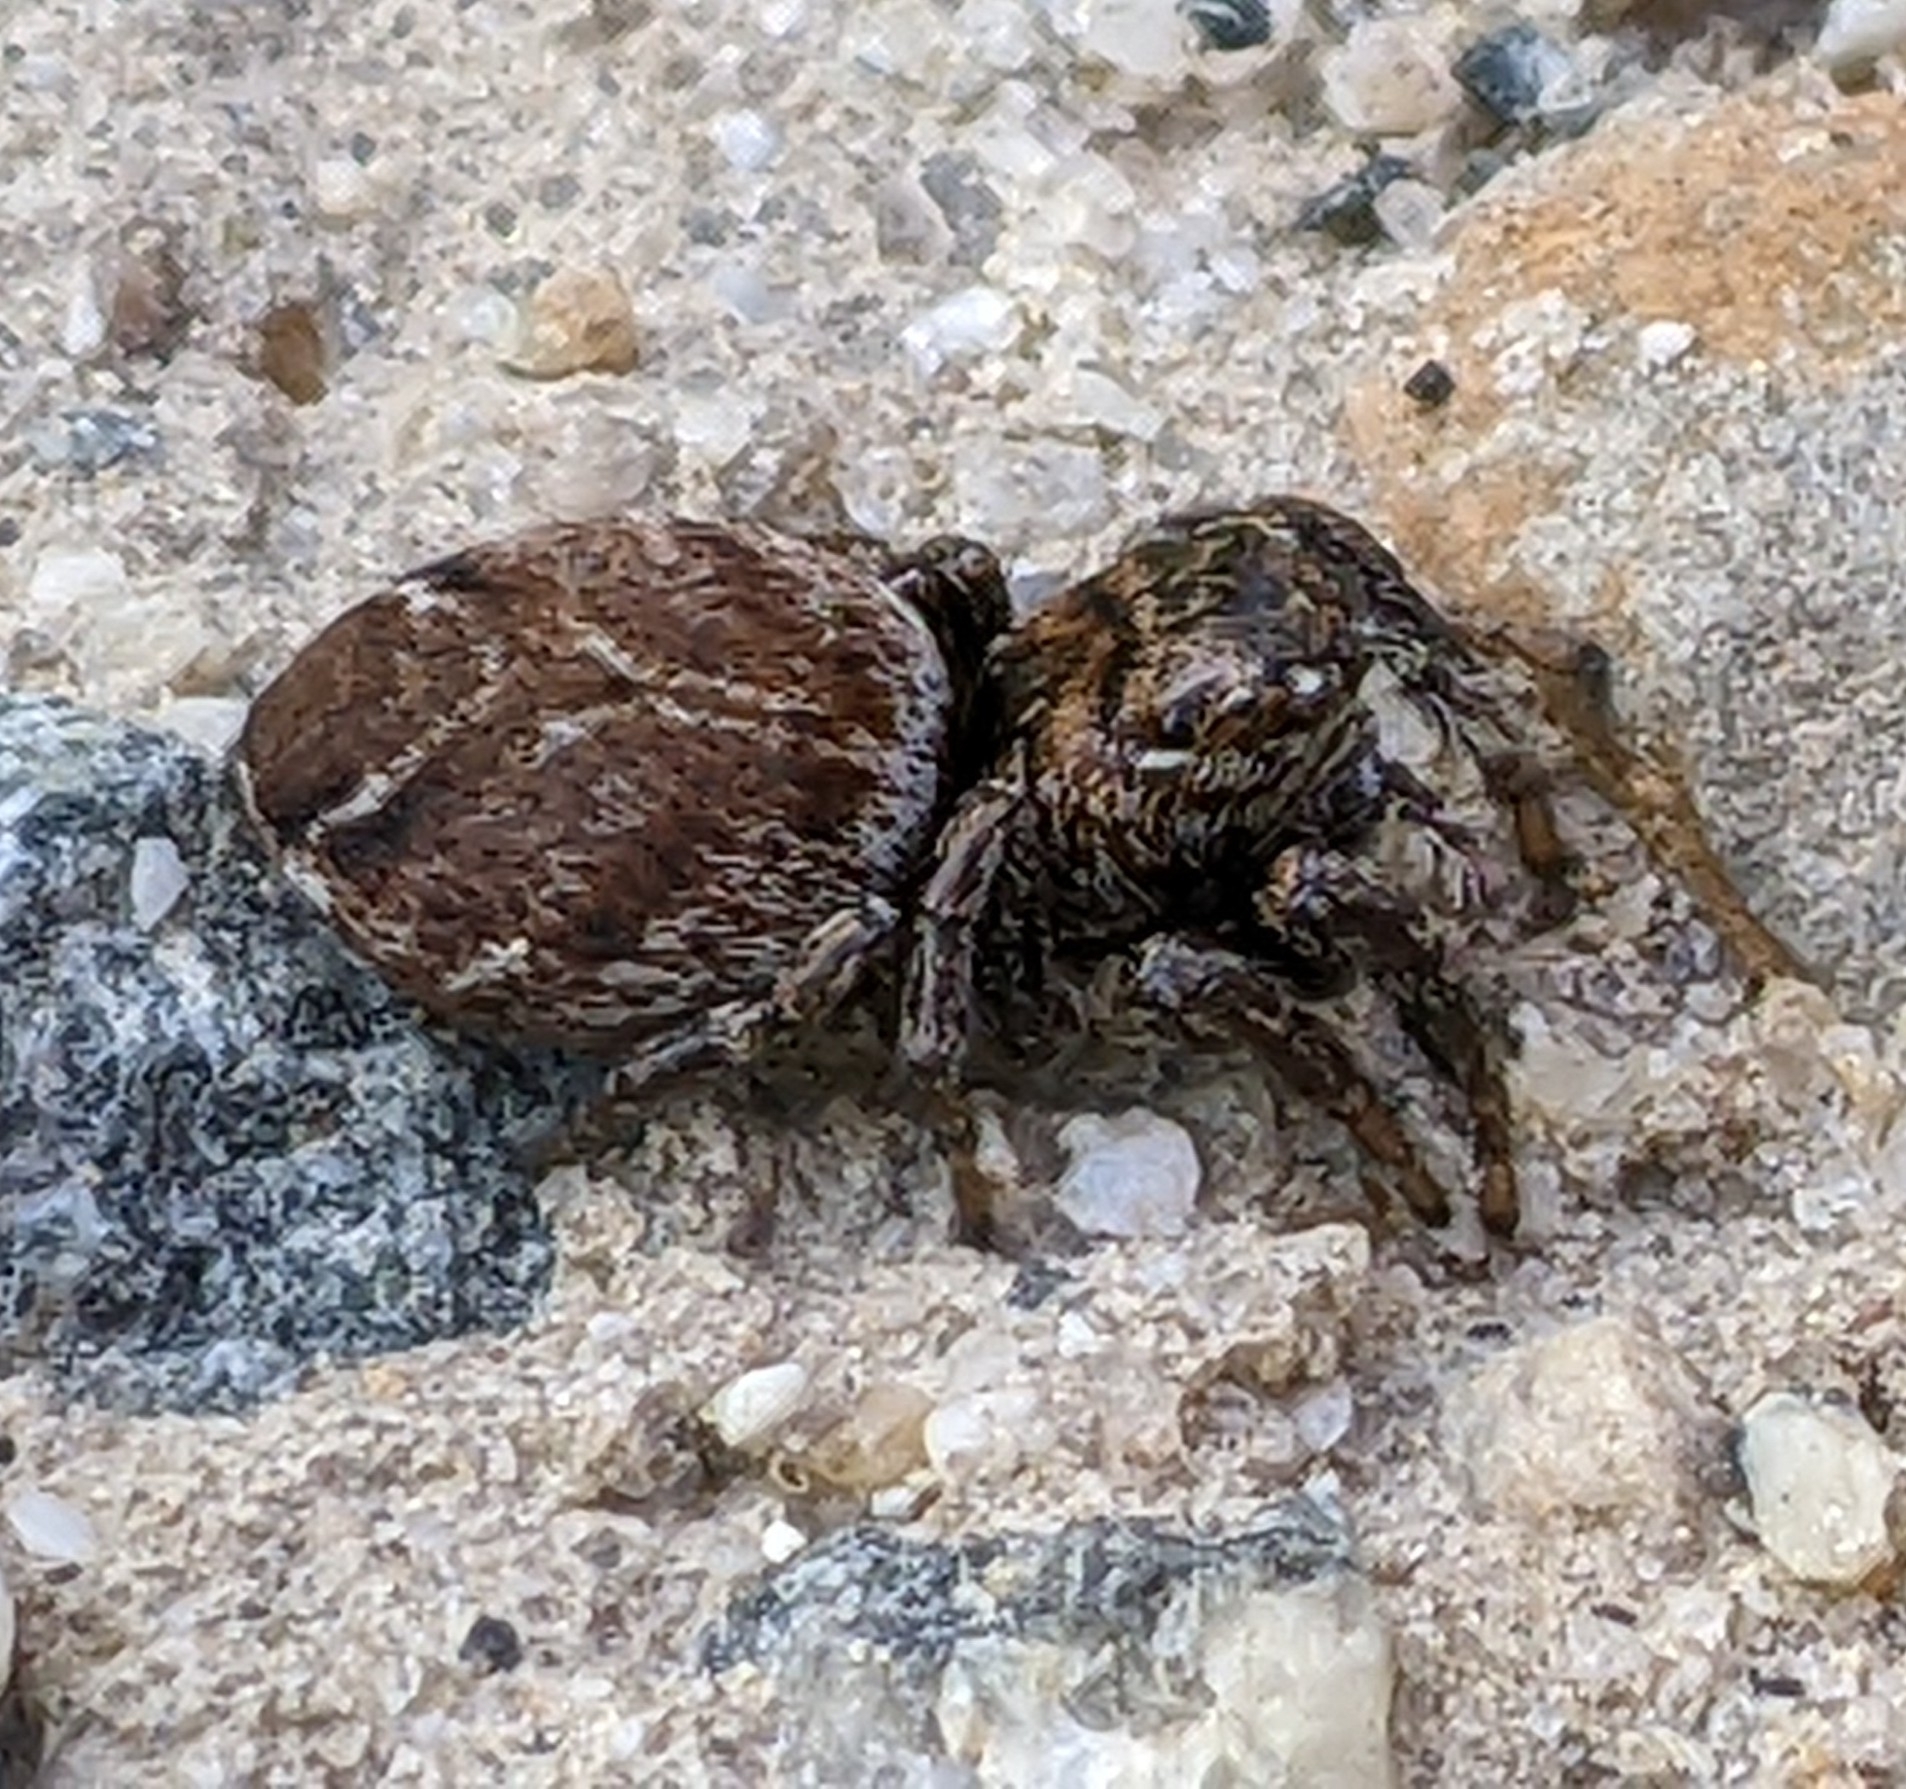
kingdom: Animalia
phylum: Arthropoda
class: Arachnida
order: Araneae
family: Salticidae
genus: Evarcha
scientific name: Evarcha proszynskii
